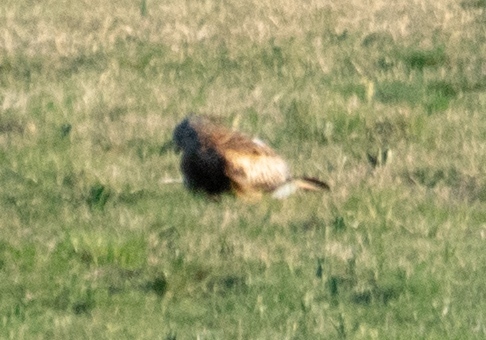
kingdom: Animalia
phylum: Chordata
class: Aves
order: Accipitriformes
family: Accipitridae
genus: Milvus
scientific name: Milvus milvus
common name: Red kite
